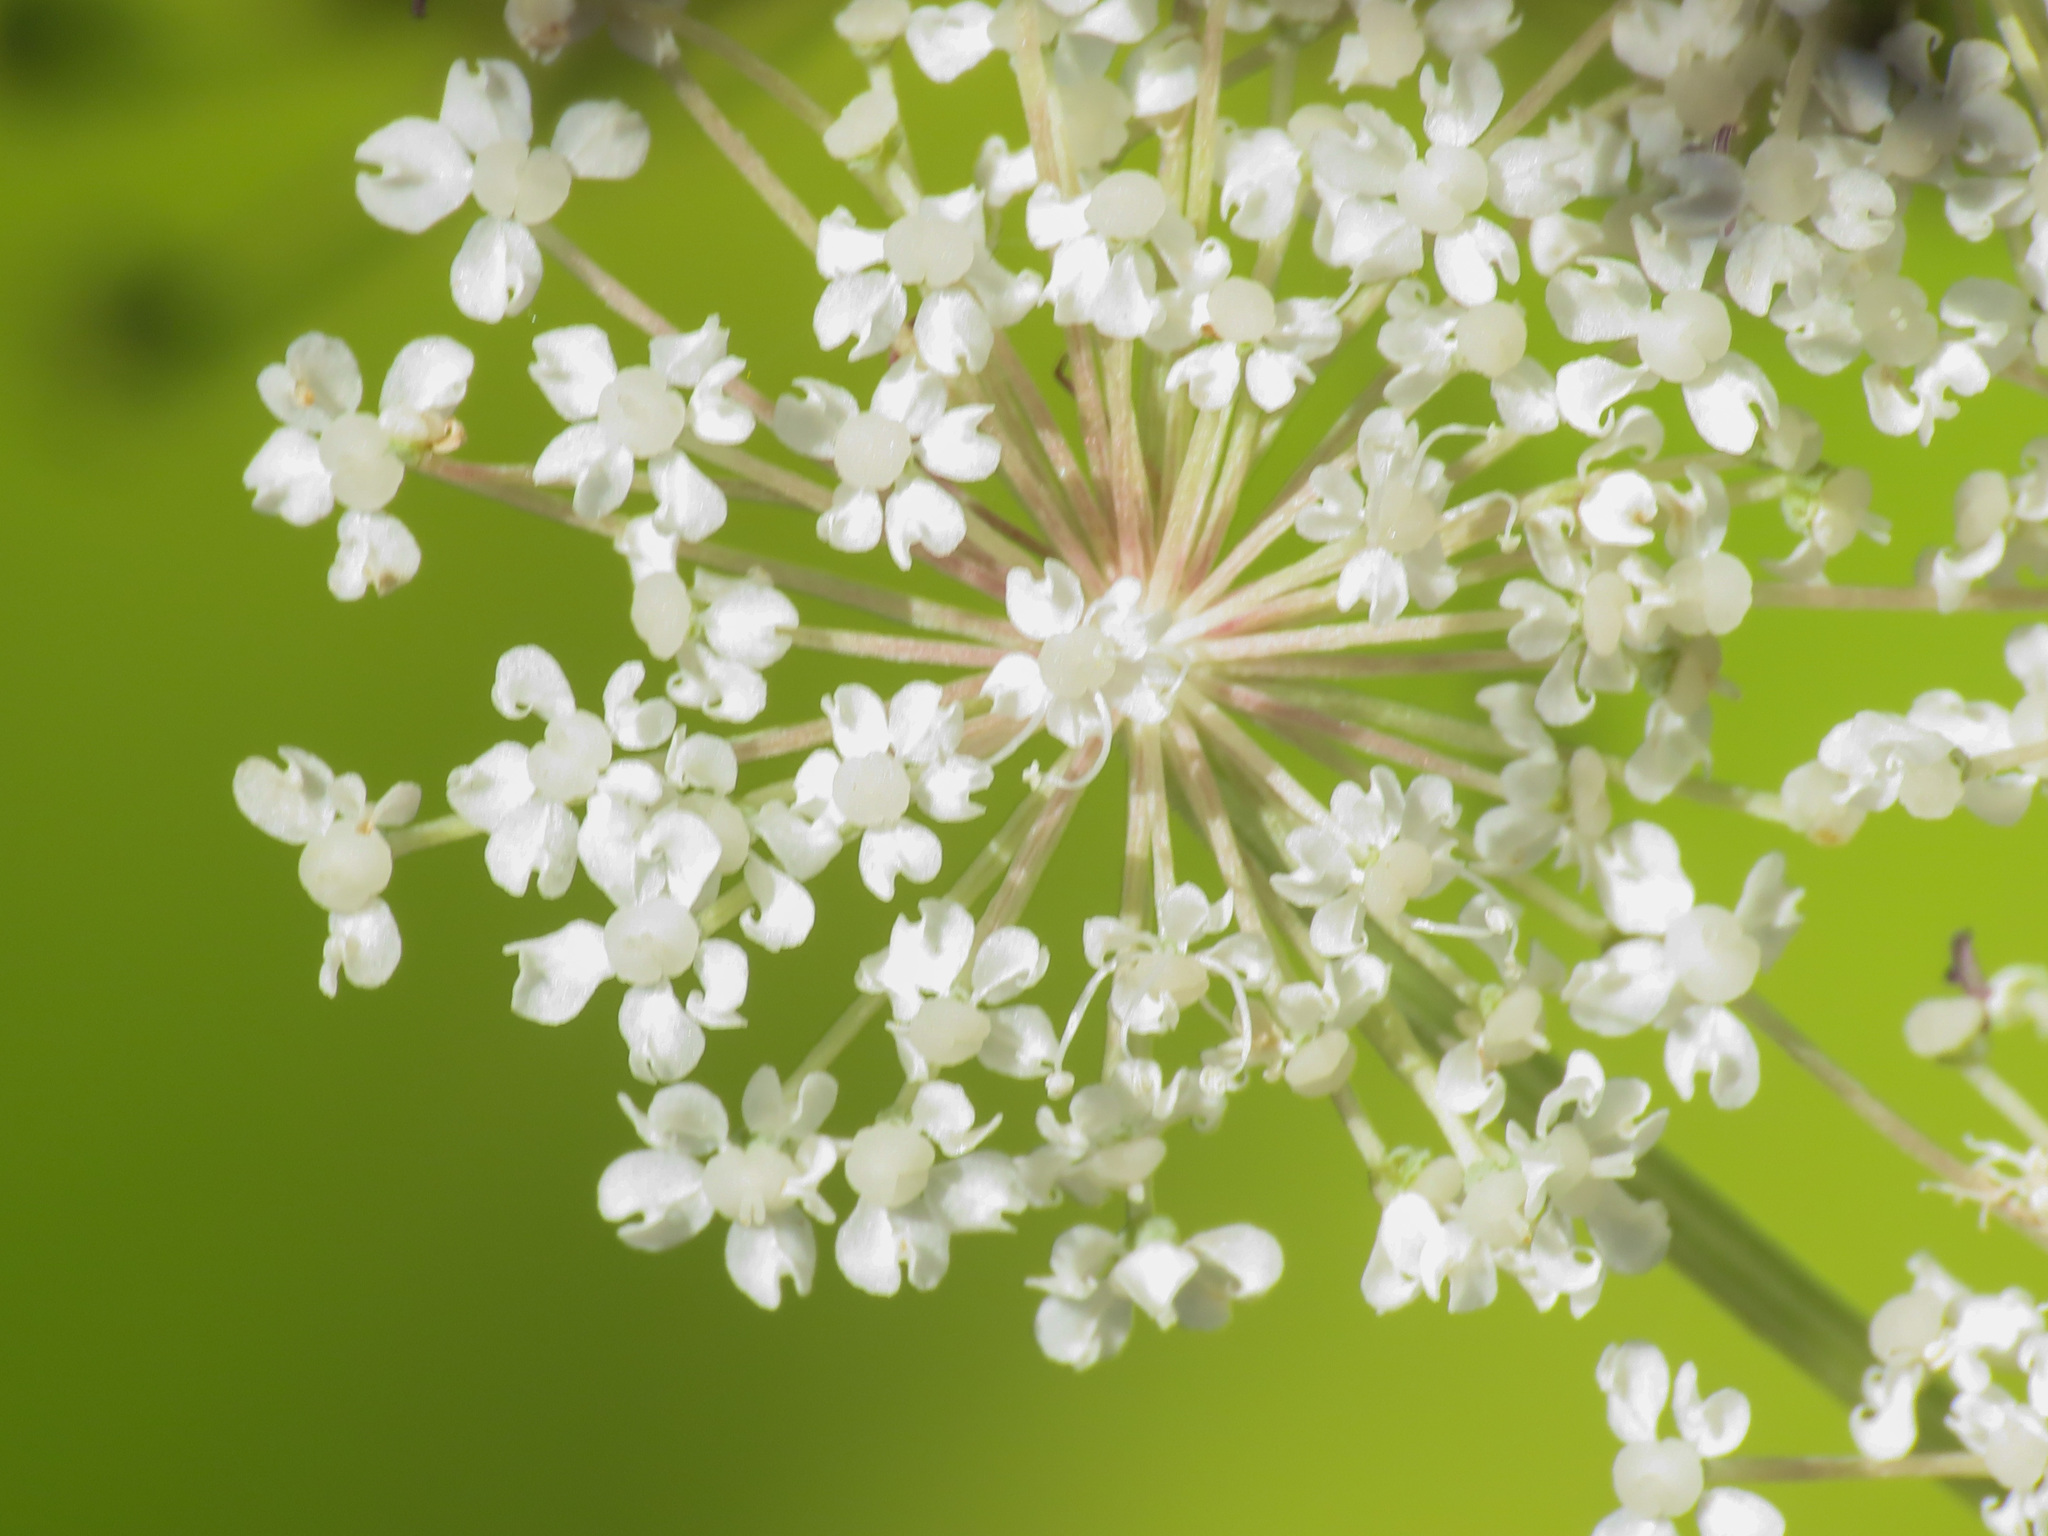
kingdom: Plantae
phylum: Tracheophyta
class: Magnoliopsida
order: Apiales
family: Apiaceae
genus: Imperatoria
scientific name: Imperatoria ostruthium
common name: Masterwort
